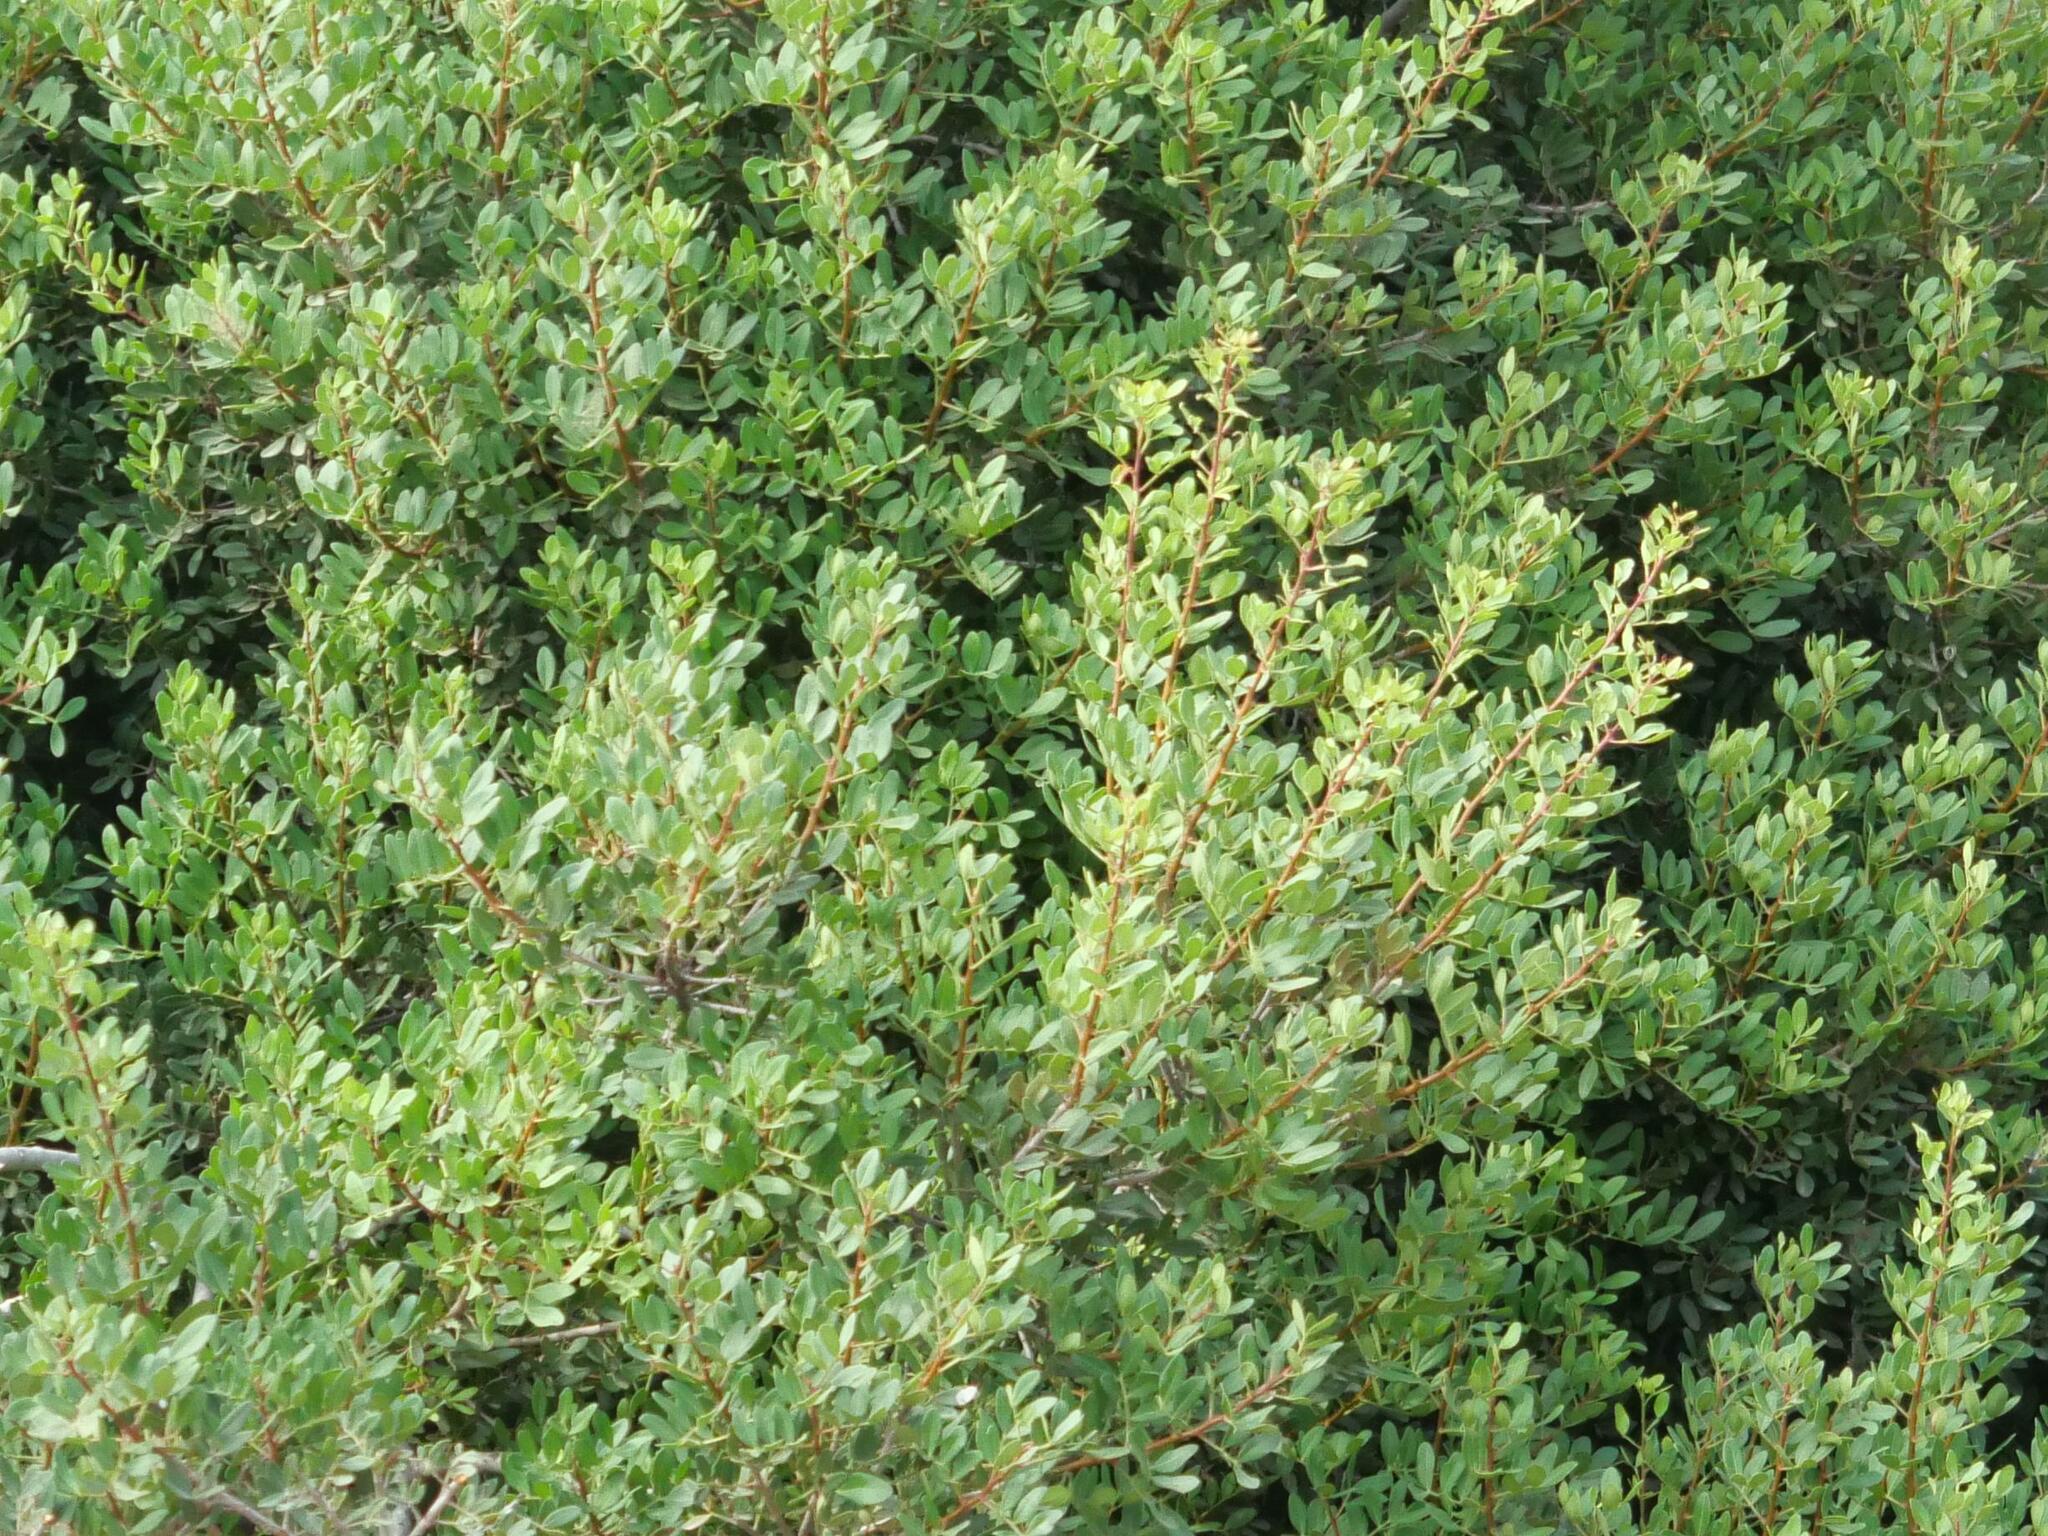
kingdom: Plantae
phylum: Tracheophyta
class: Magnoliopsida
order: Sapindales
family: Anacardiaceae
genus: Pistacia
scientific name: Pistacia lentiscus
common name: Lentisk
